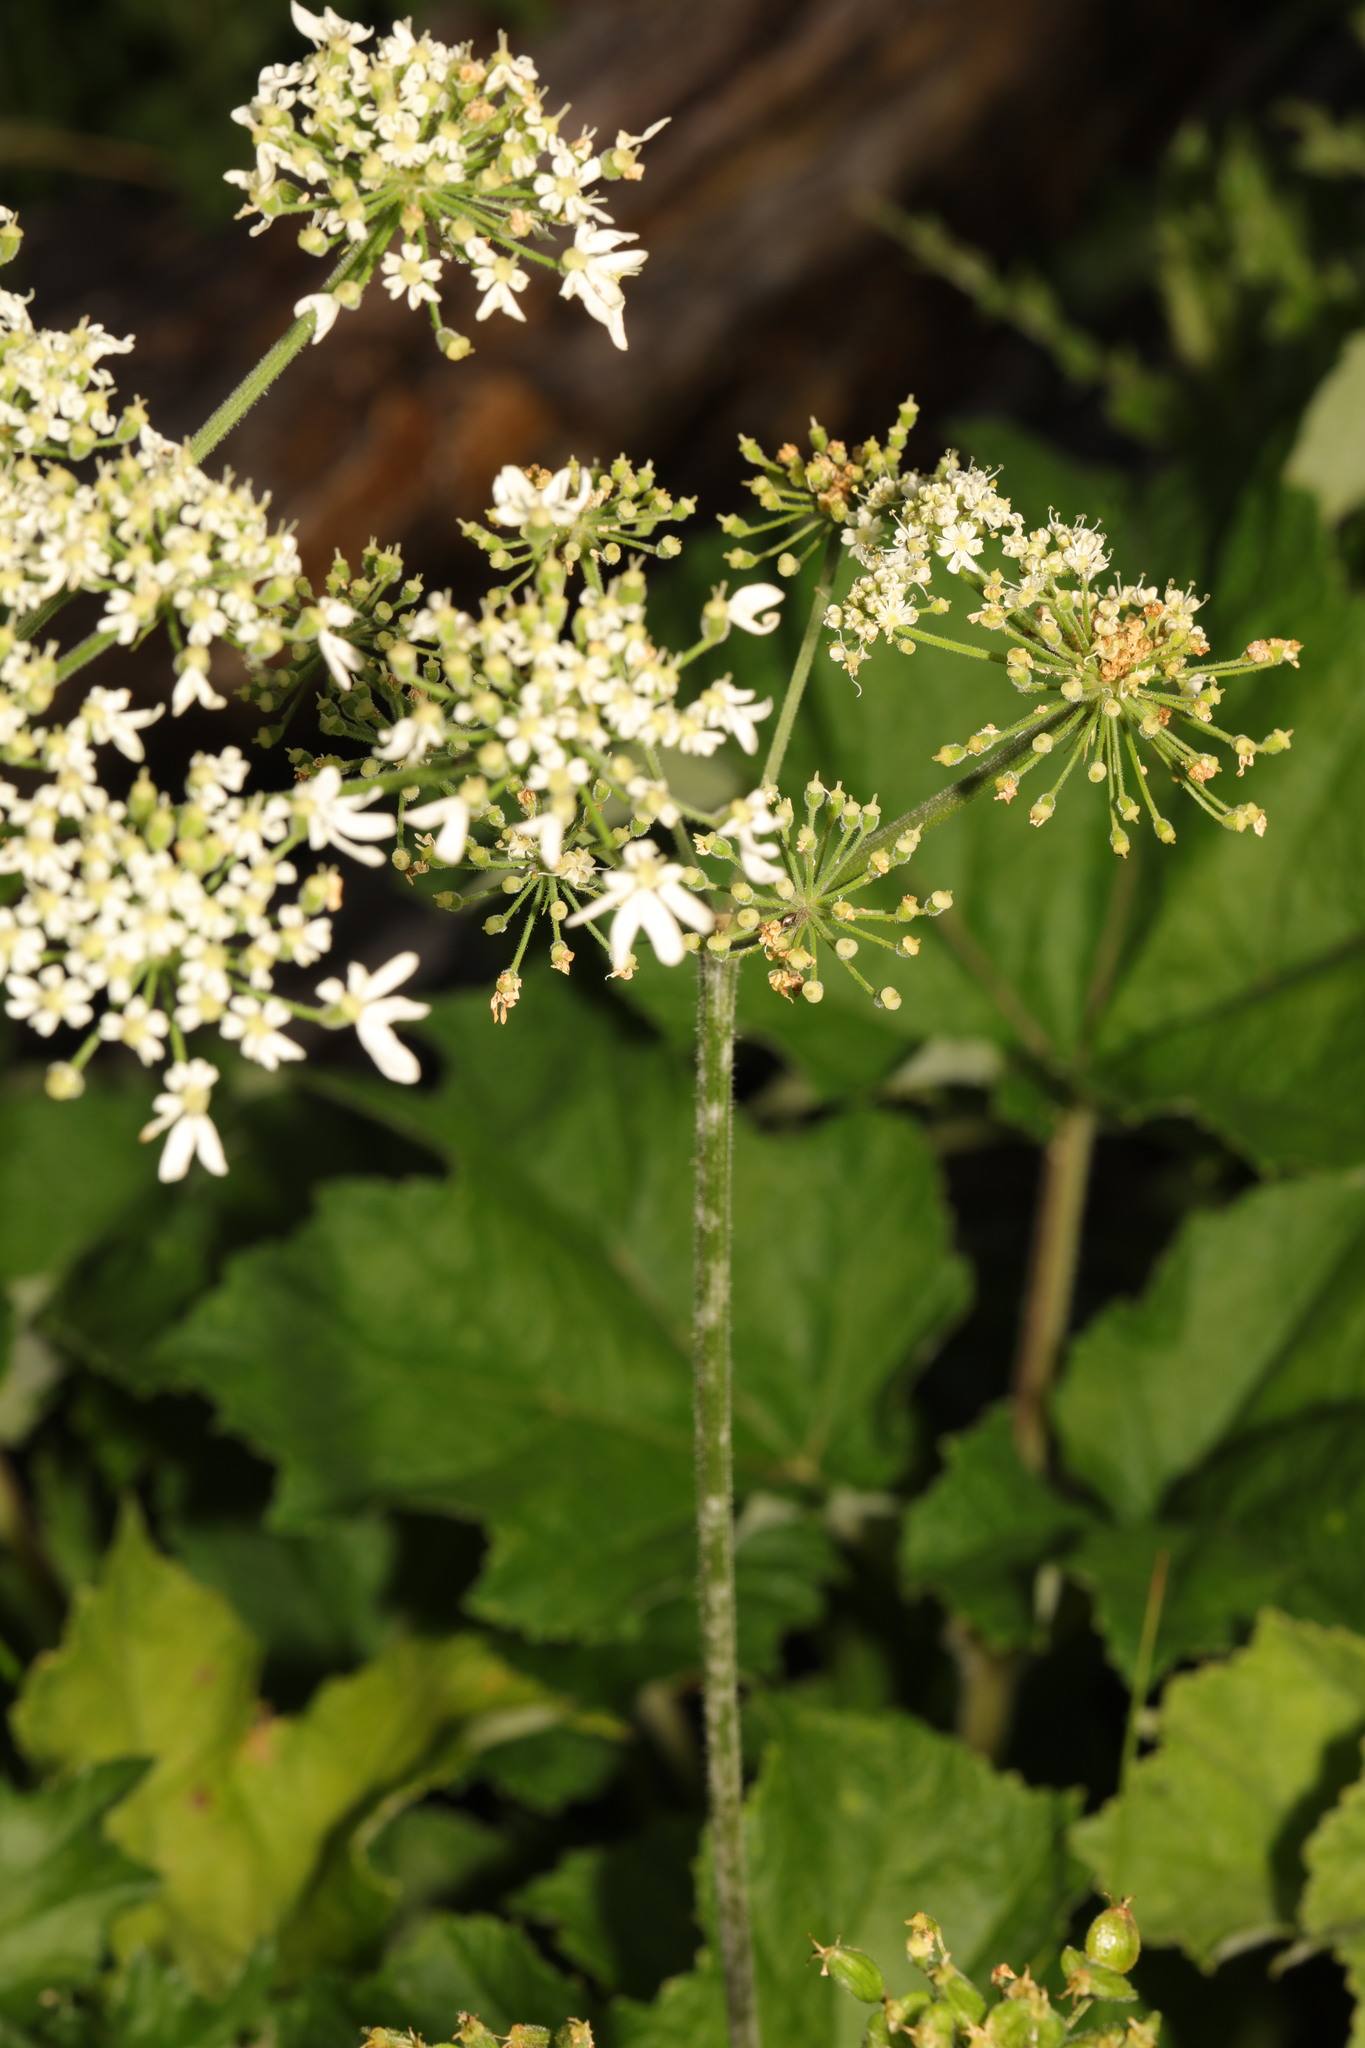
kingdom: Plantae
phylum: Tracheophyta
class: Magnoliopsida
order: Apiales
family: Apiaceae
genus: Heracleum
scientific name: Heracleum sphondylium
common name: Hogweed
